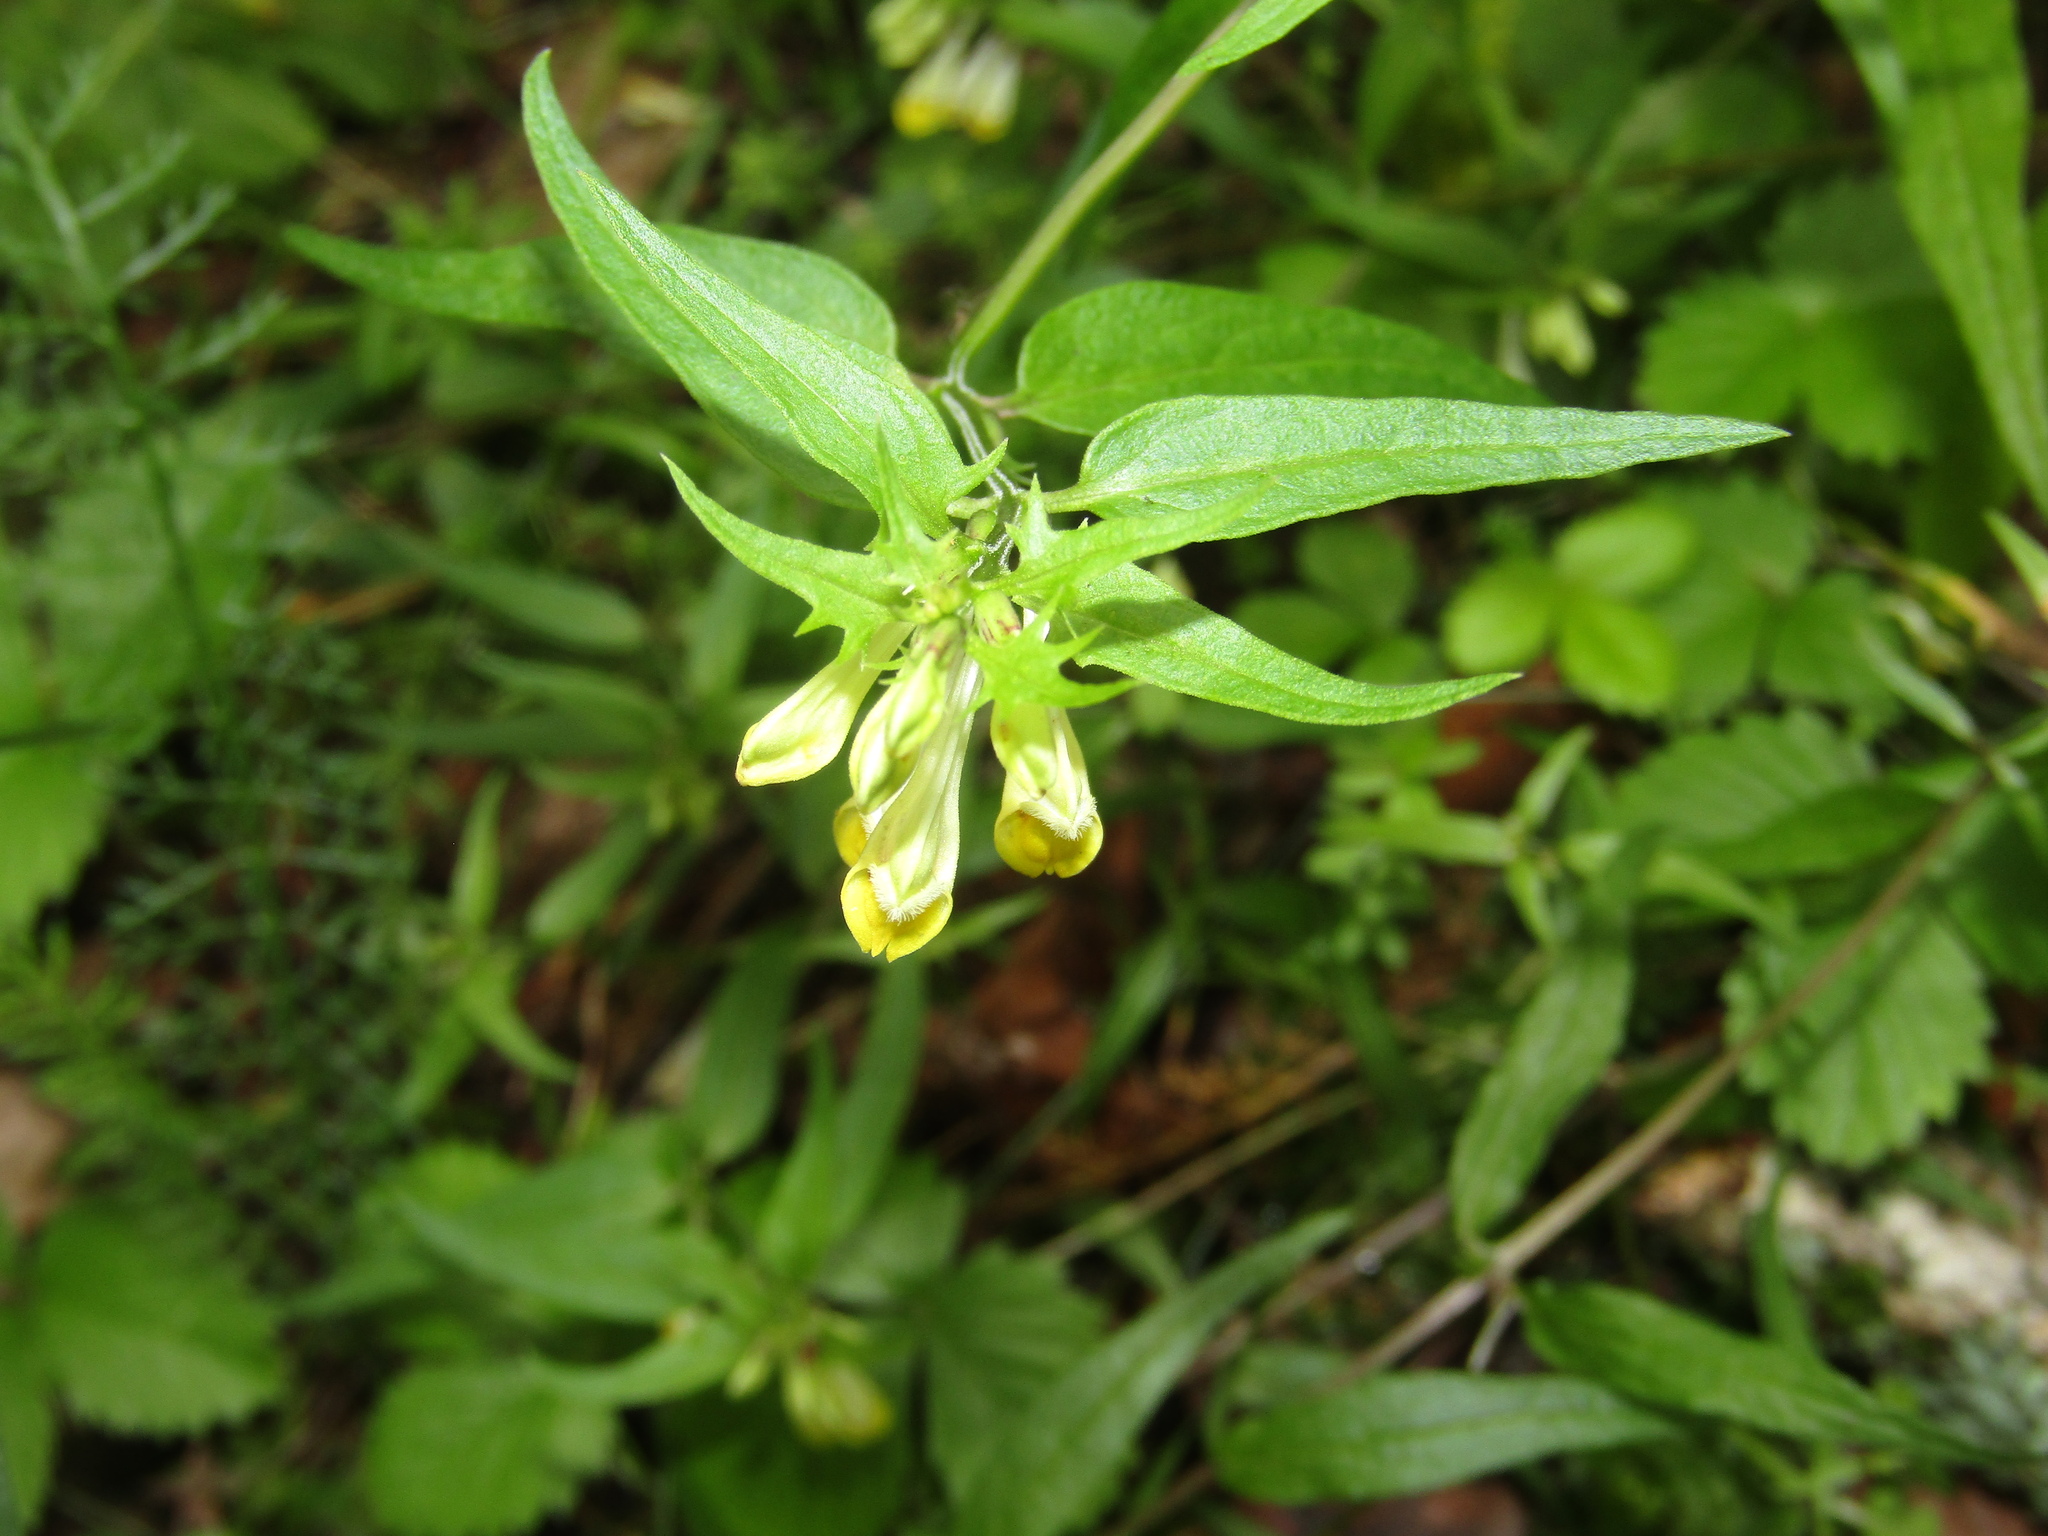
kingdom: Plantae
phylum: Tracheophyta
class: Magnoliopsida
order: Lamiales
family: Orobanchaceae
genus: Melampyrum
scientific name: Melampyrum pratense
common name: Common cow-wheat
